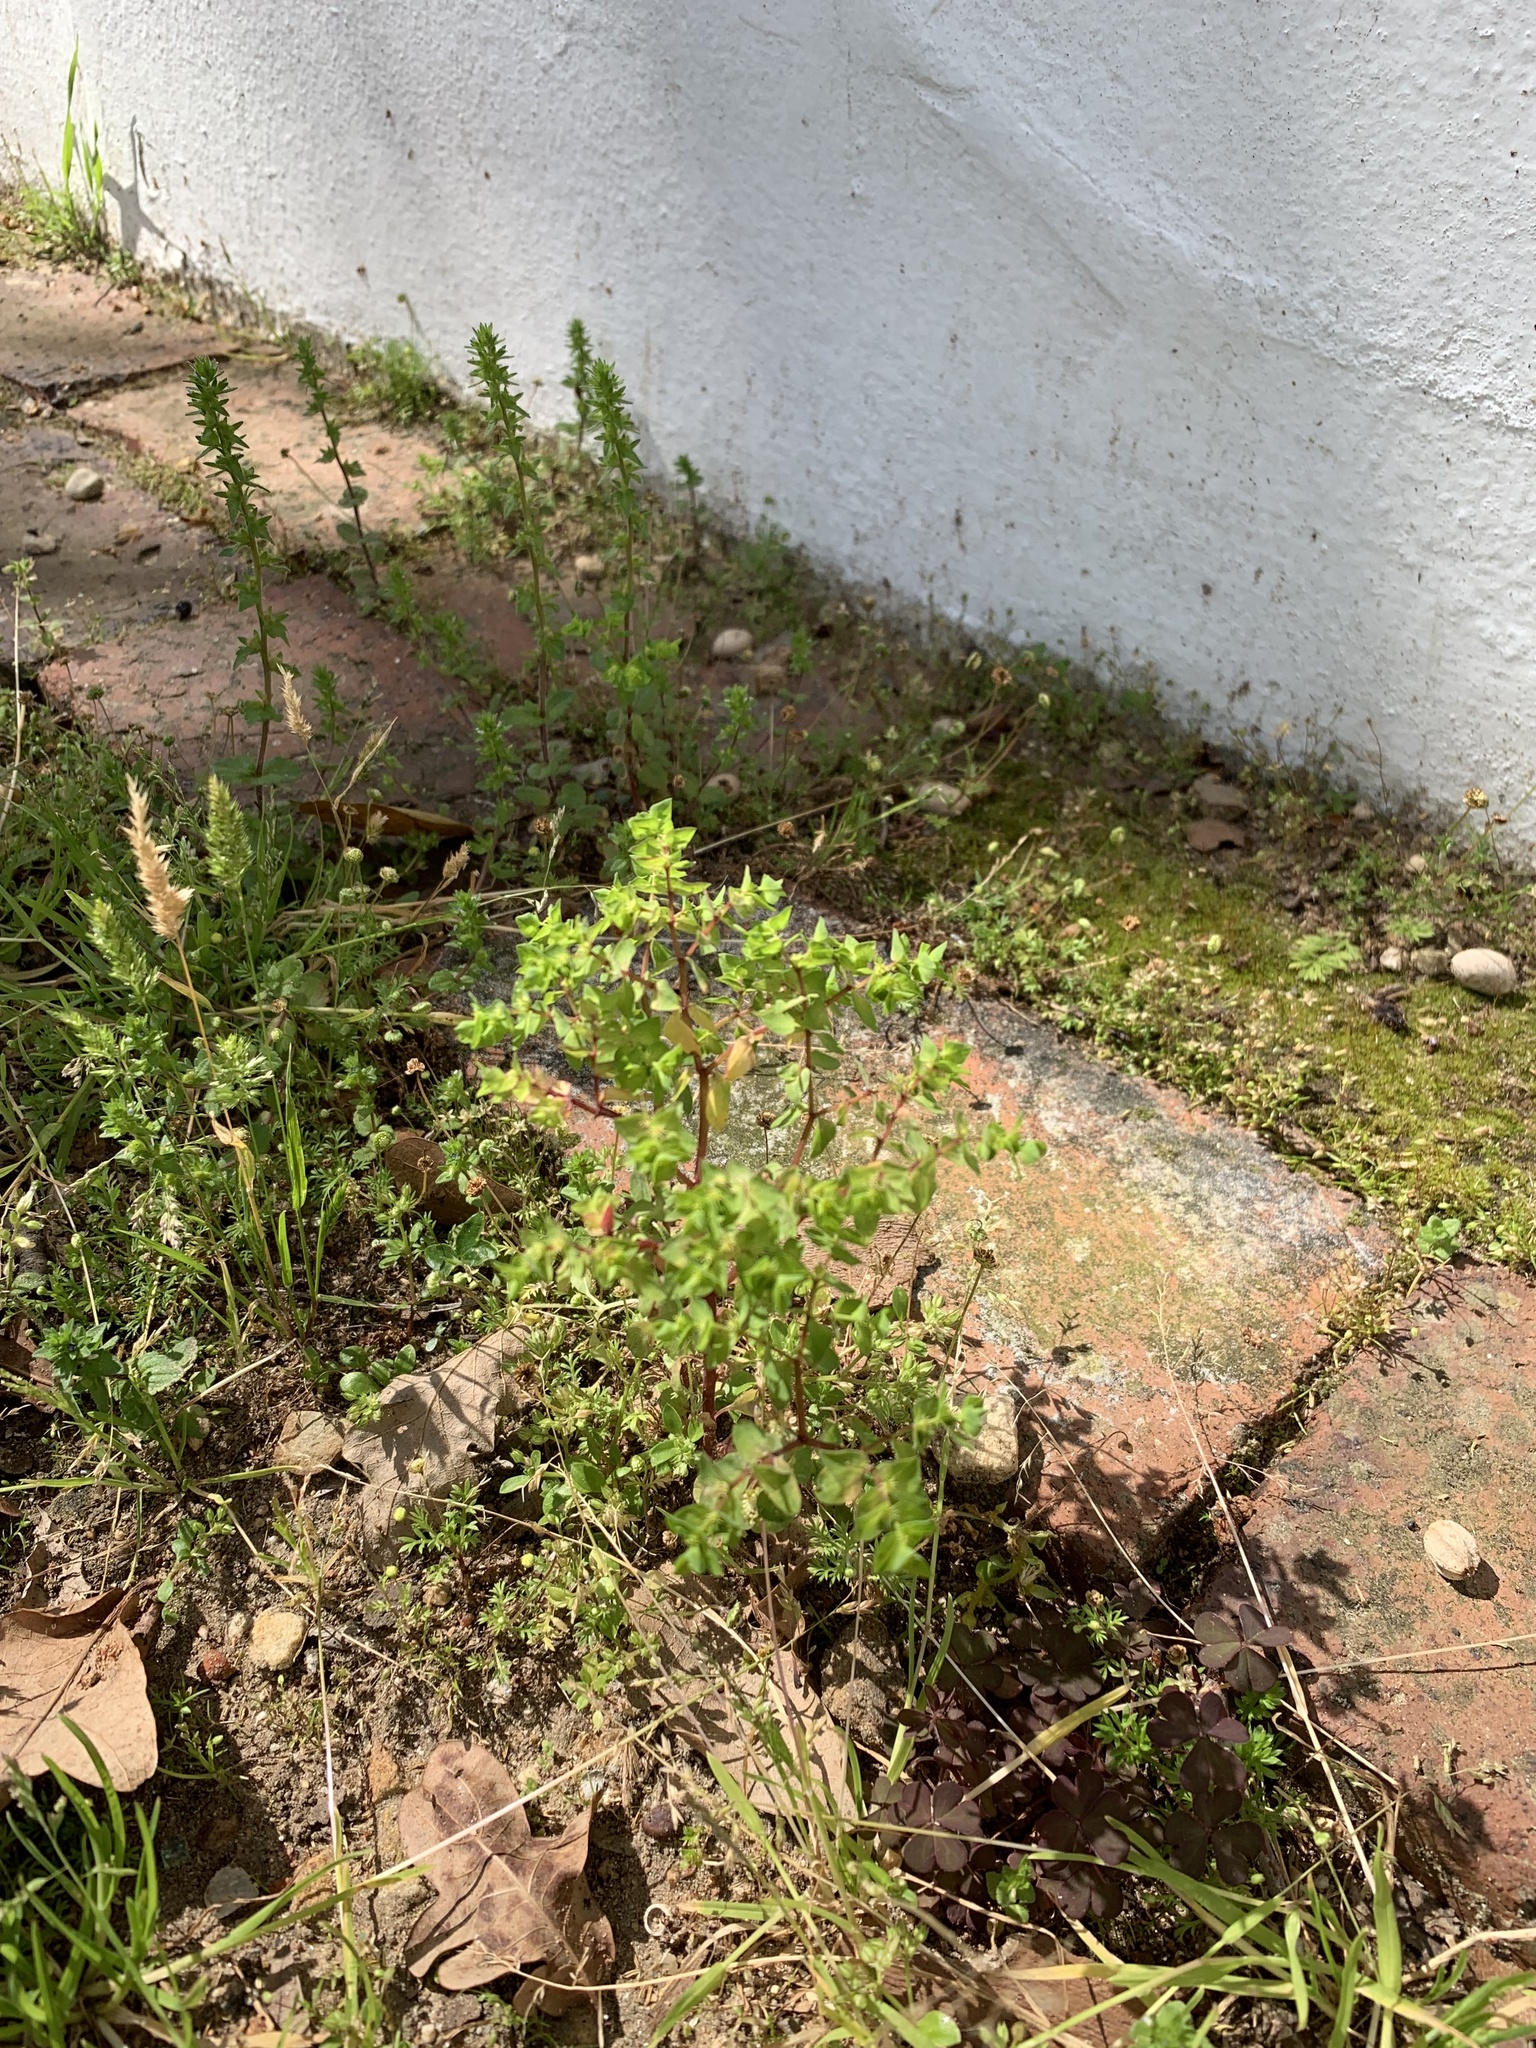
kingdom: Plantae
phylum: Tracheophyta
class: Magnoliopsida
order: Malpighiales
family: Euphorbiaceae
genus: Euphorbia
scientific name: Euphorbia peplus
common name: Petty spurge
